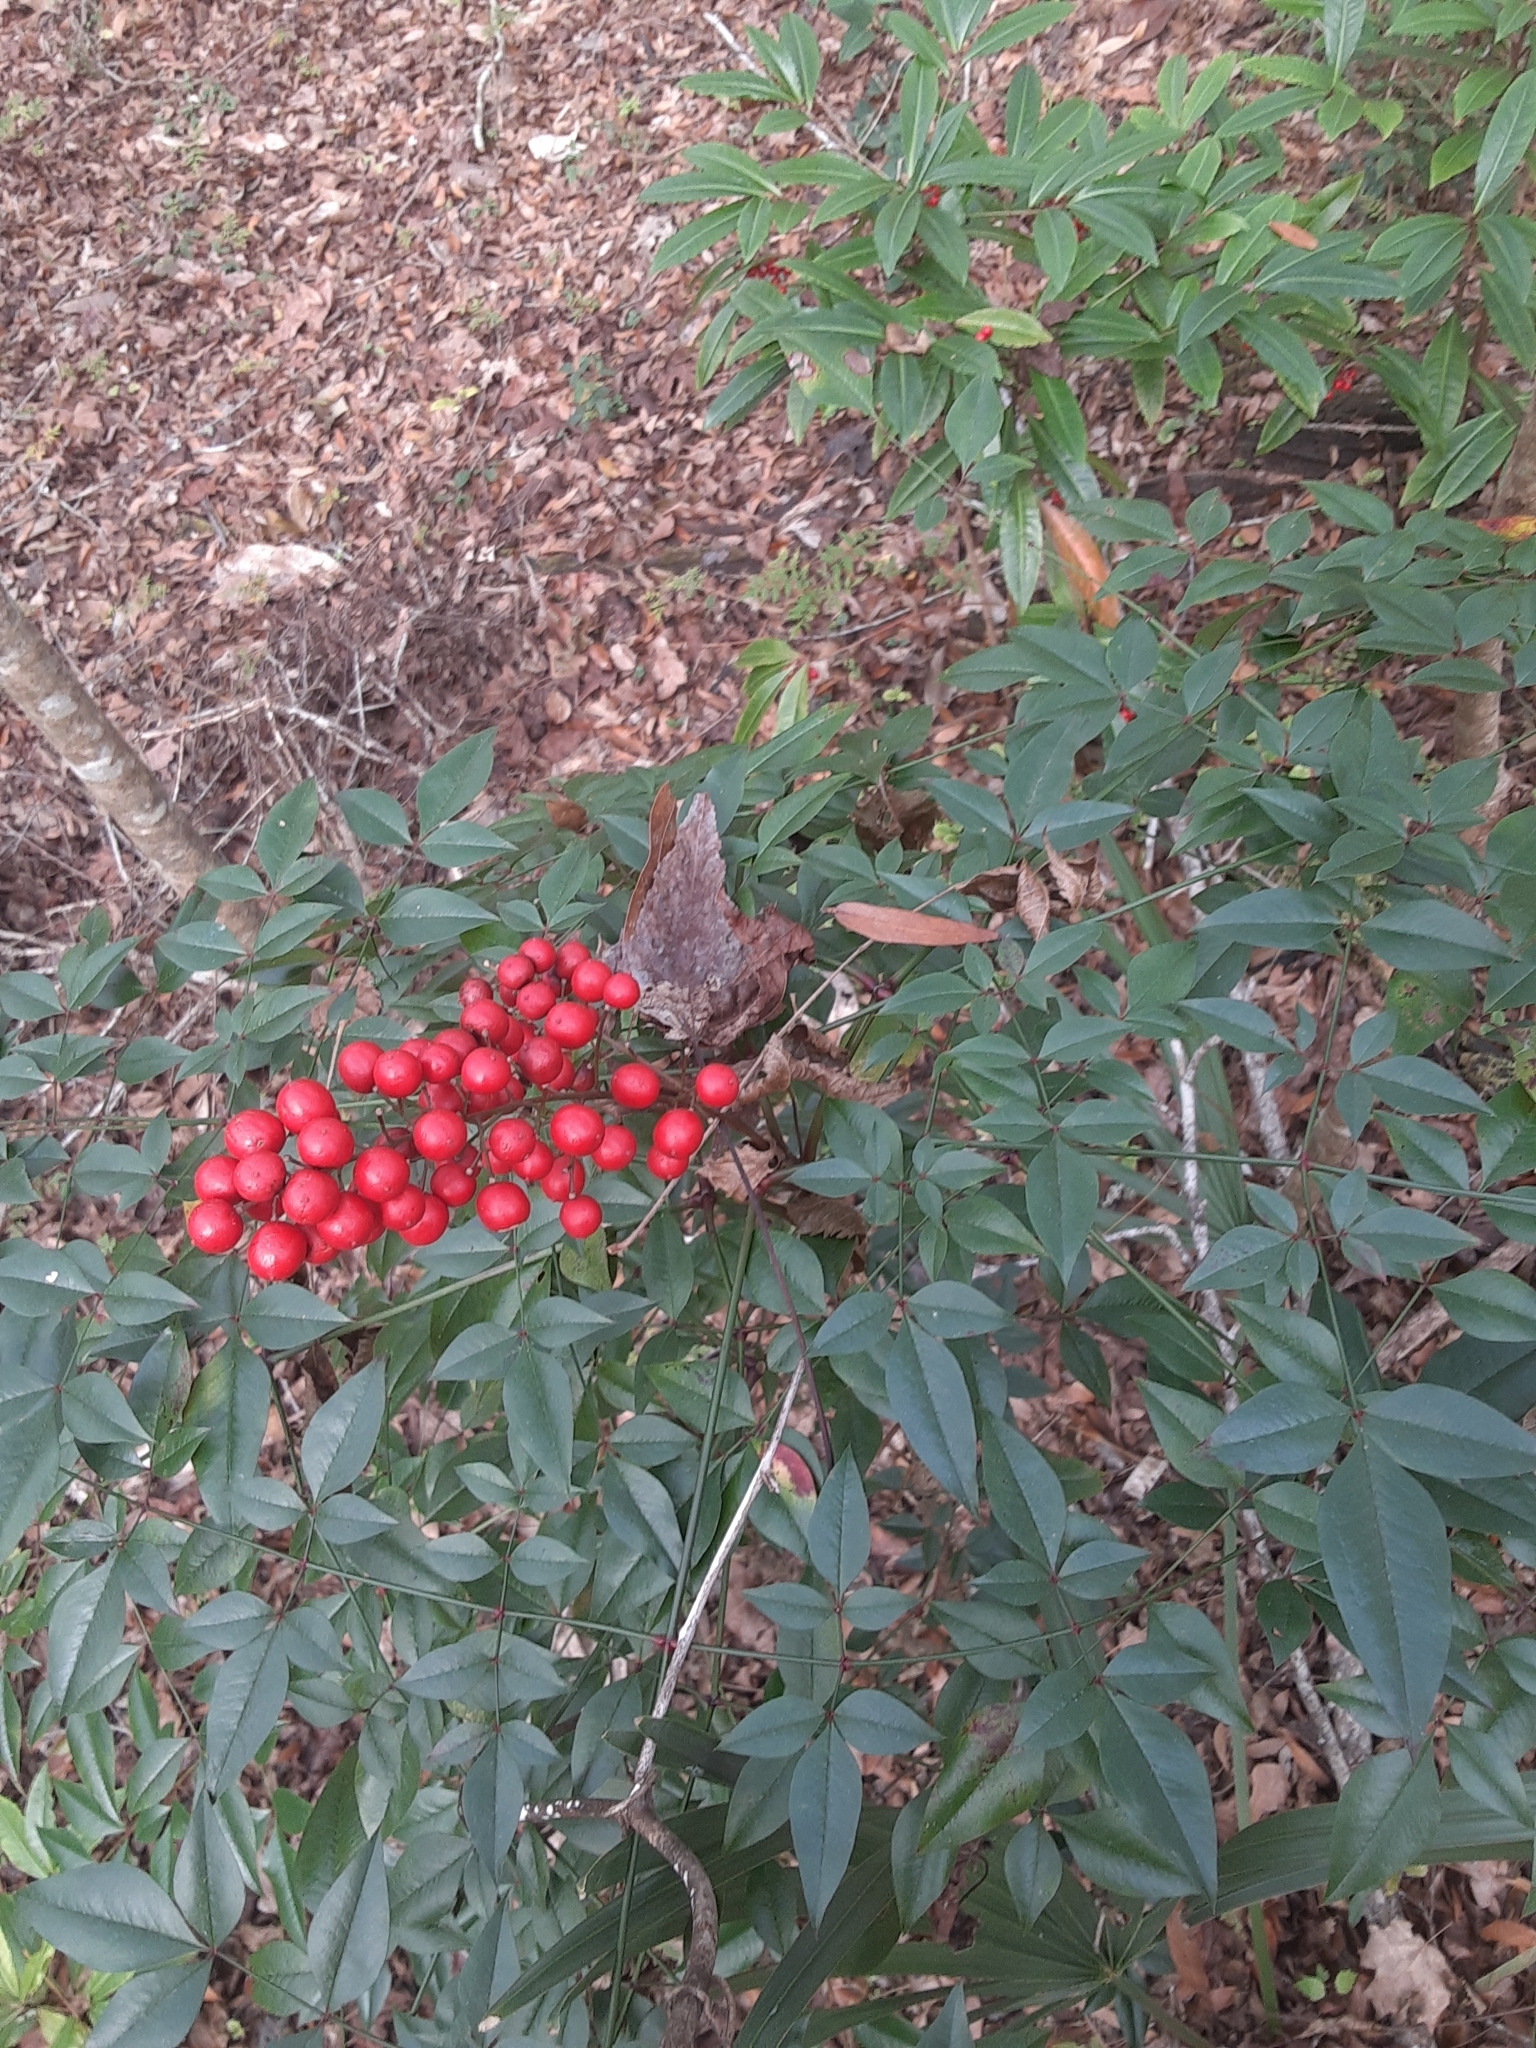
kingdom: Plantae
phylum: Tracheophyta
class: Magnoliopsida
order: Ranunculales
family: Berberidaceae
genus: Nandina
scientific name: Nandina domestica
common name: Sacred bamboo
